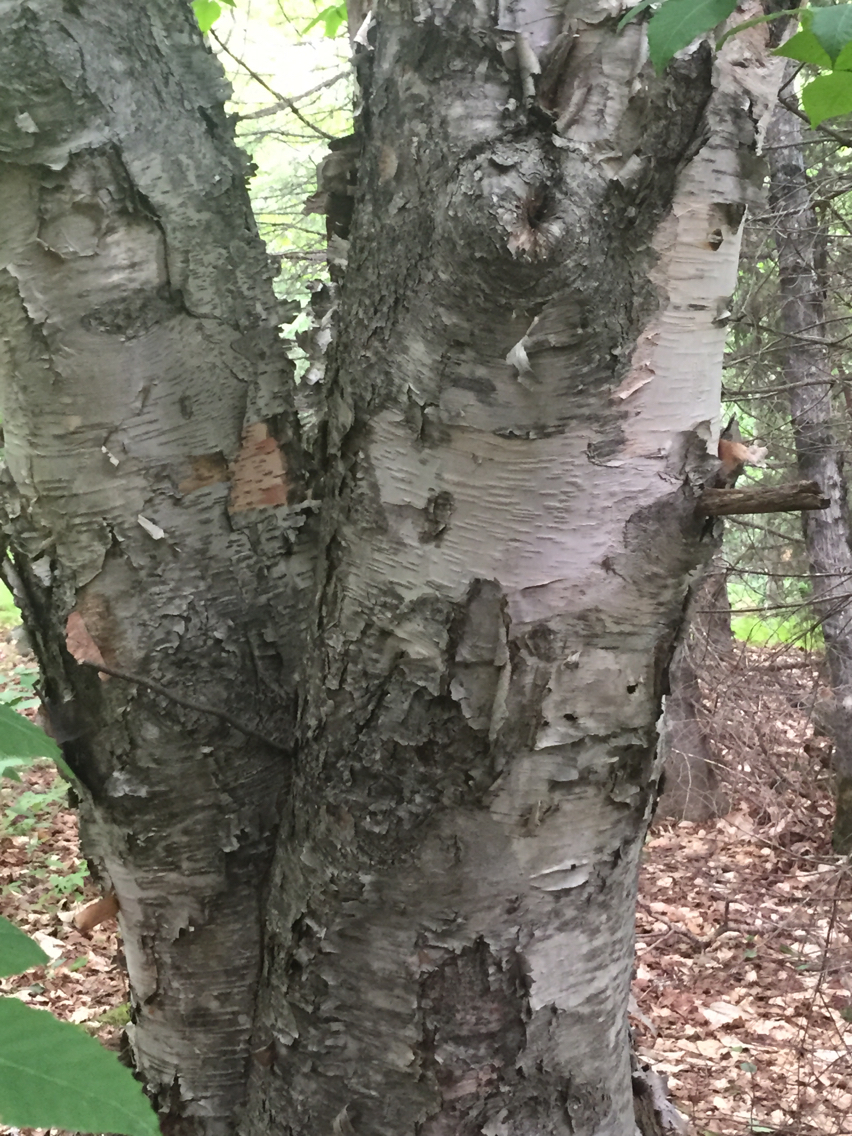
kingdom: Plantae
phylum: Tracheophyta
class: Magnoliopsida
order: Fagales
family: Betulaceae
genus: Betula
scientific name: Betula papyrifera
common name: Paper birch
